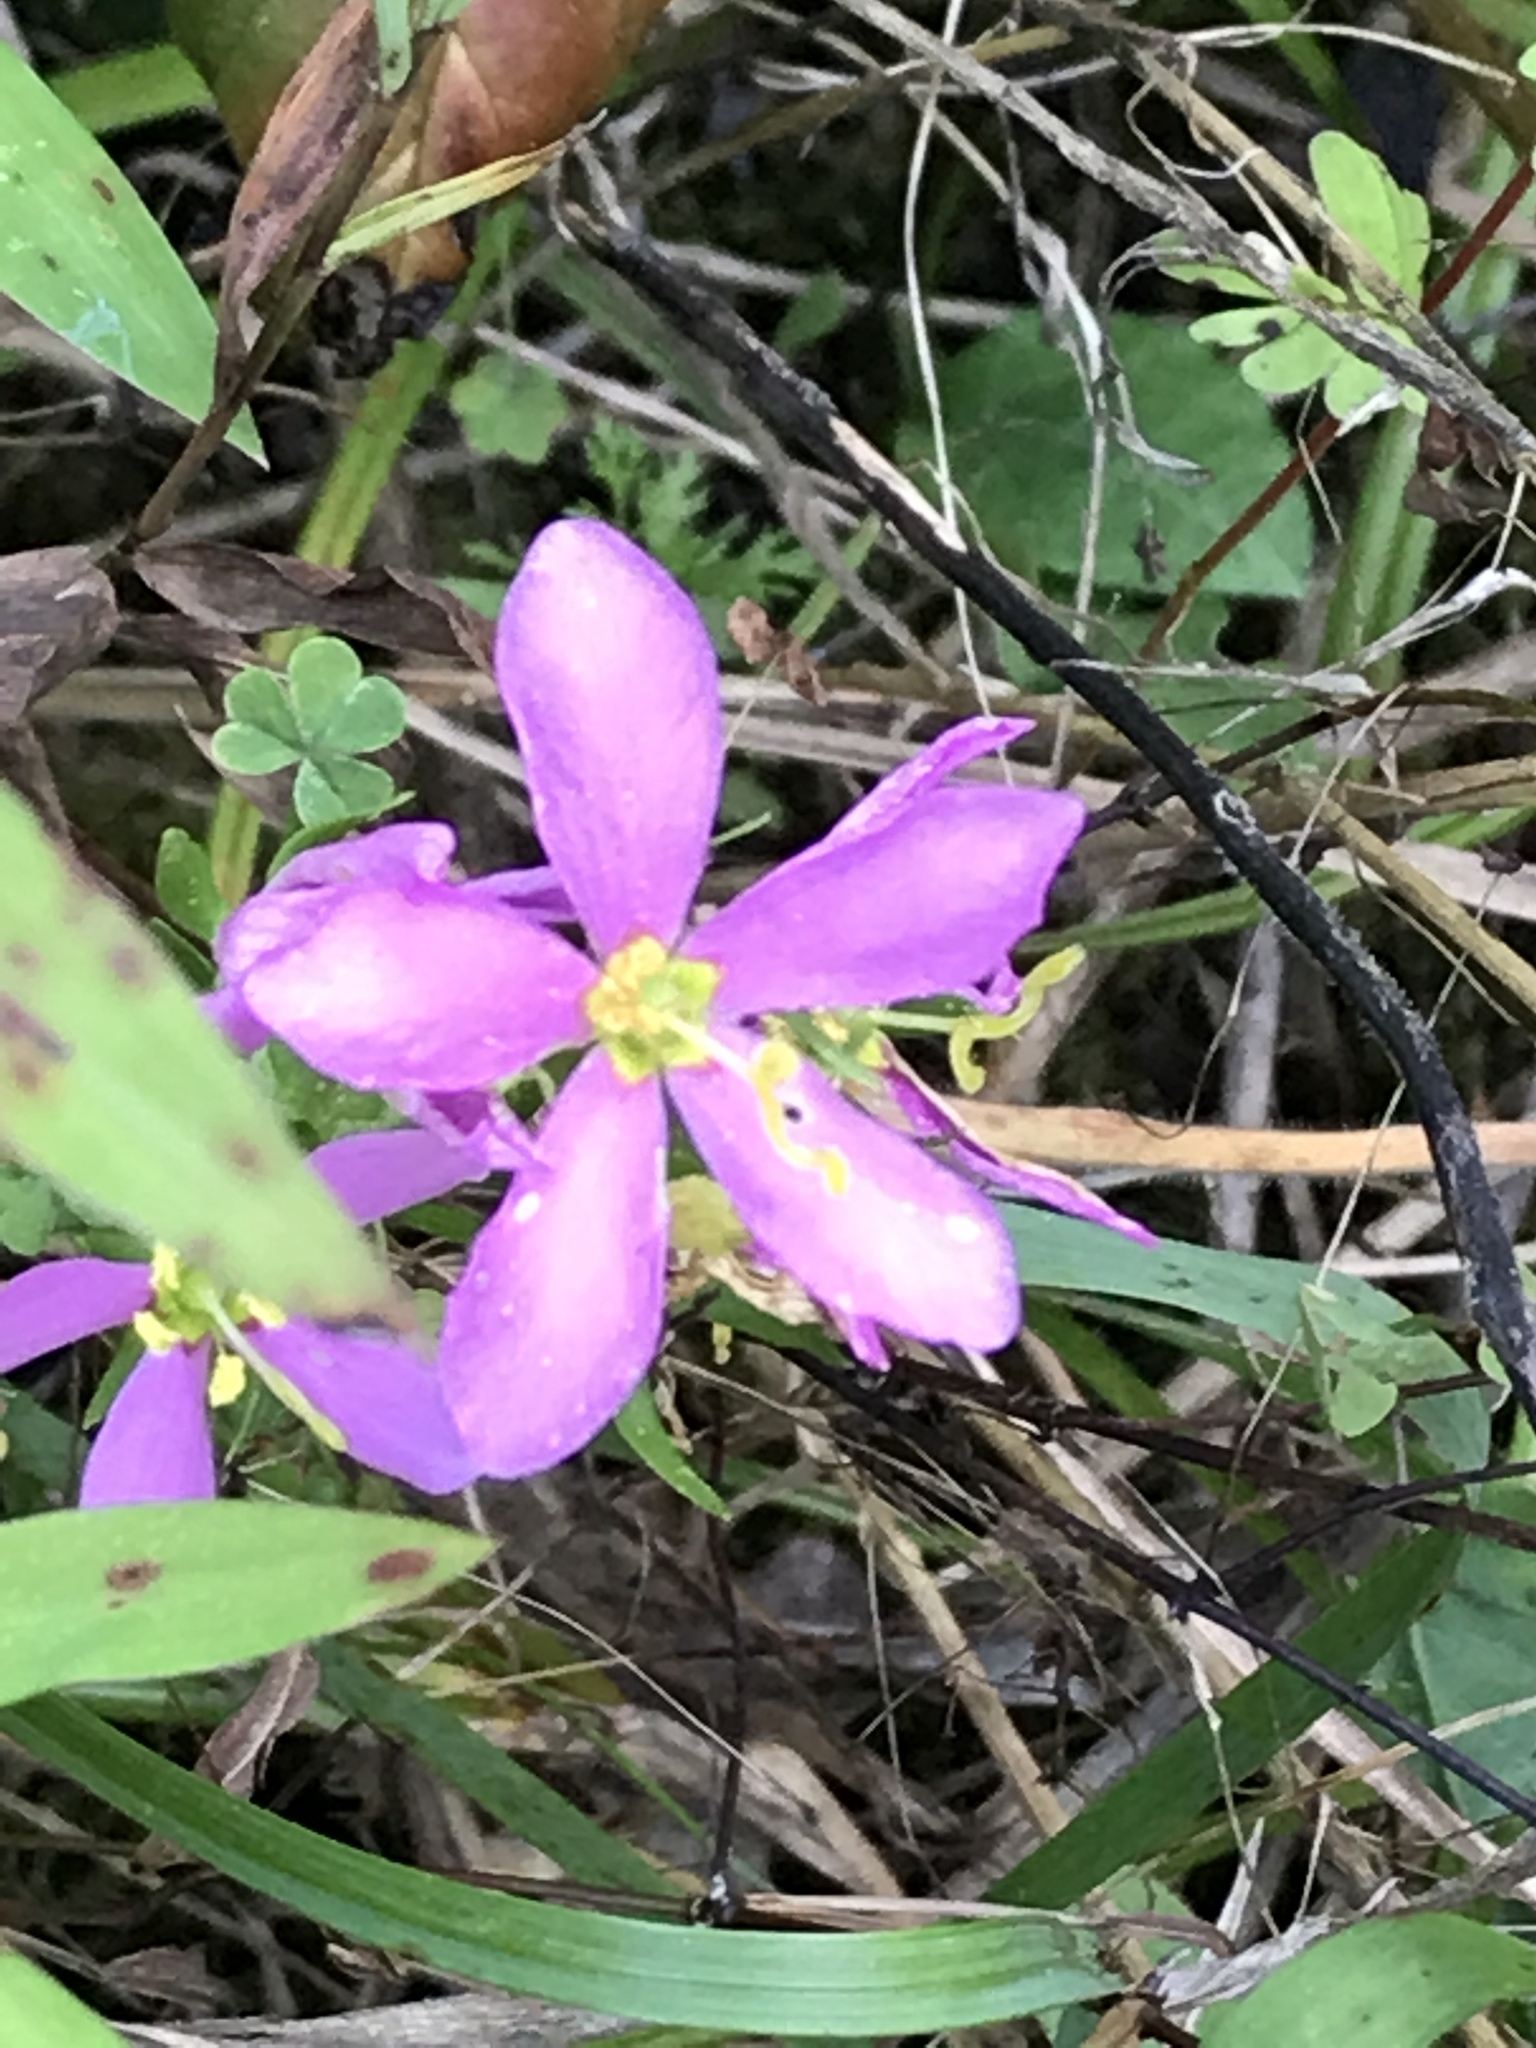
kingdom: Plantae
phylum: Tracheophyta
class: Magnoliopsida
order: Gentianales
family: Gentianaceae
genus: Sabatia
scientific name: Sabatia angularis
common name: Rose-pink
